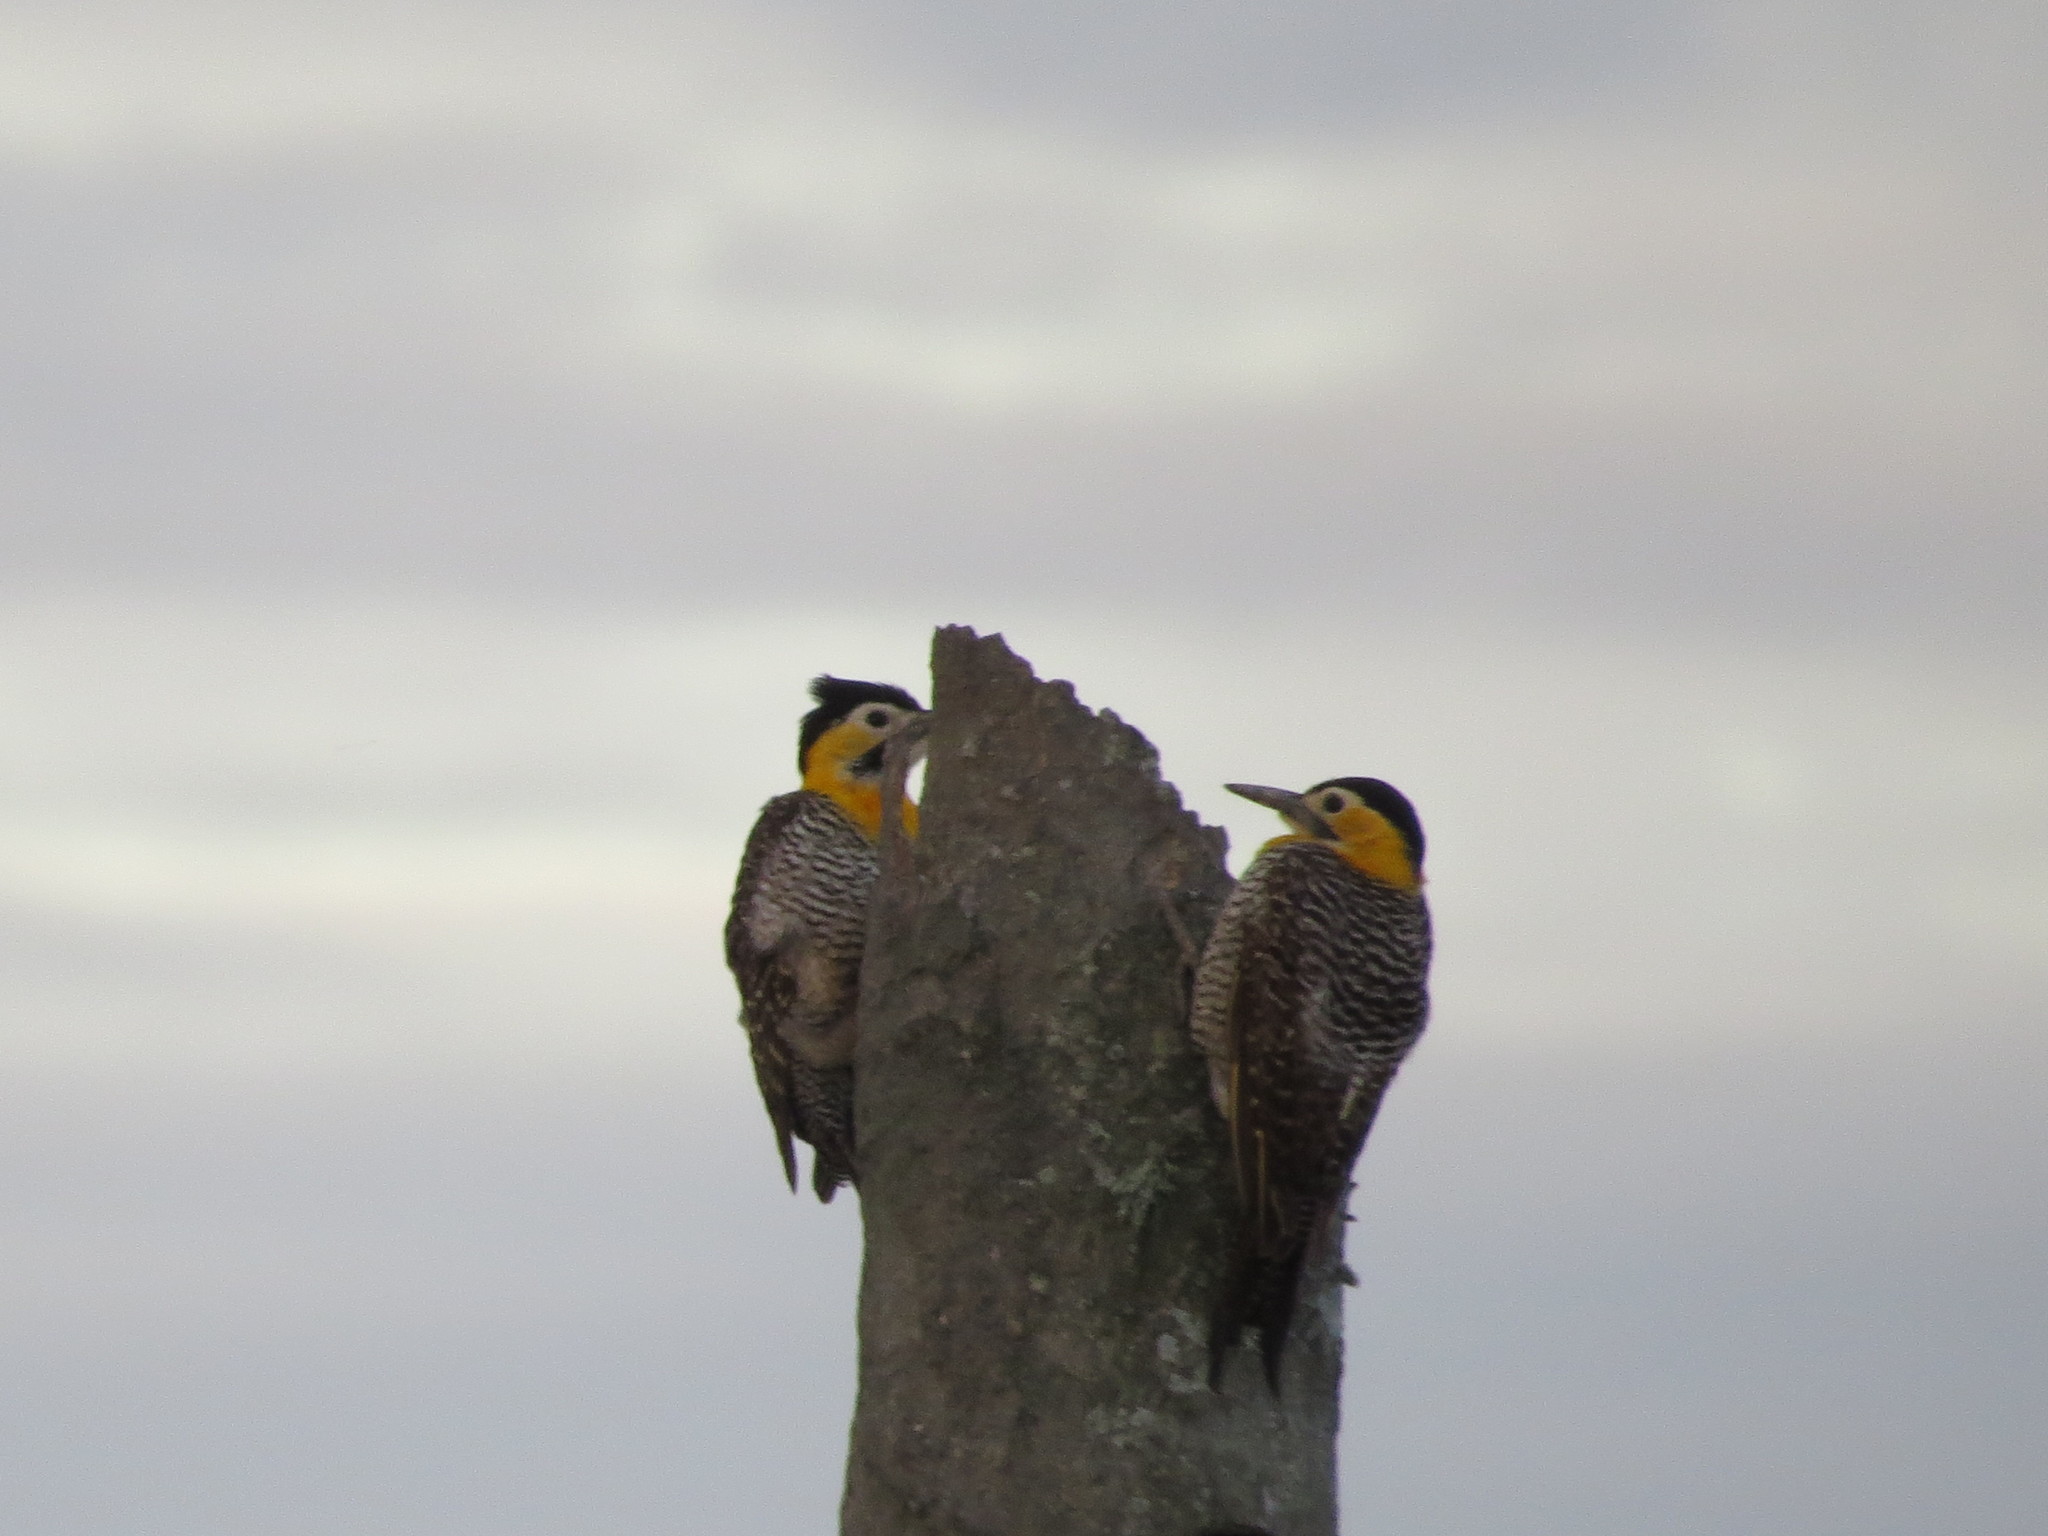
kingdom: Animalia
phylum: Chordata
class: Aves
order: Piciformes
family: Picidae
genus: Colaptes
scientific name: Colaptes campestris
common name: Campo flicker
